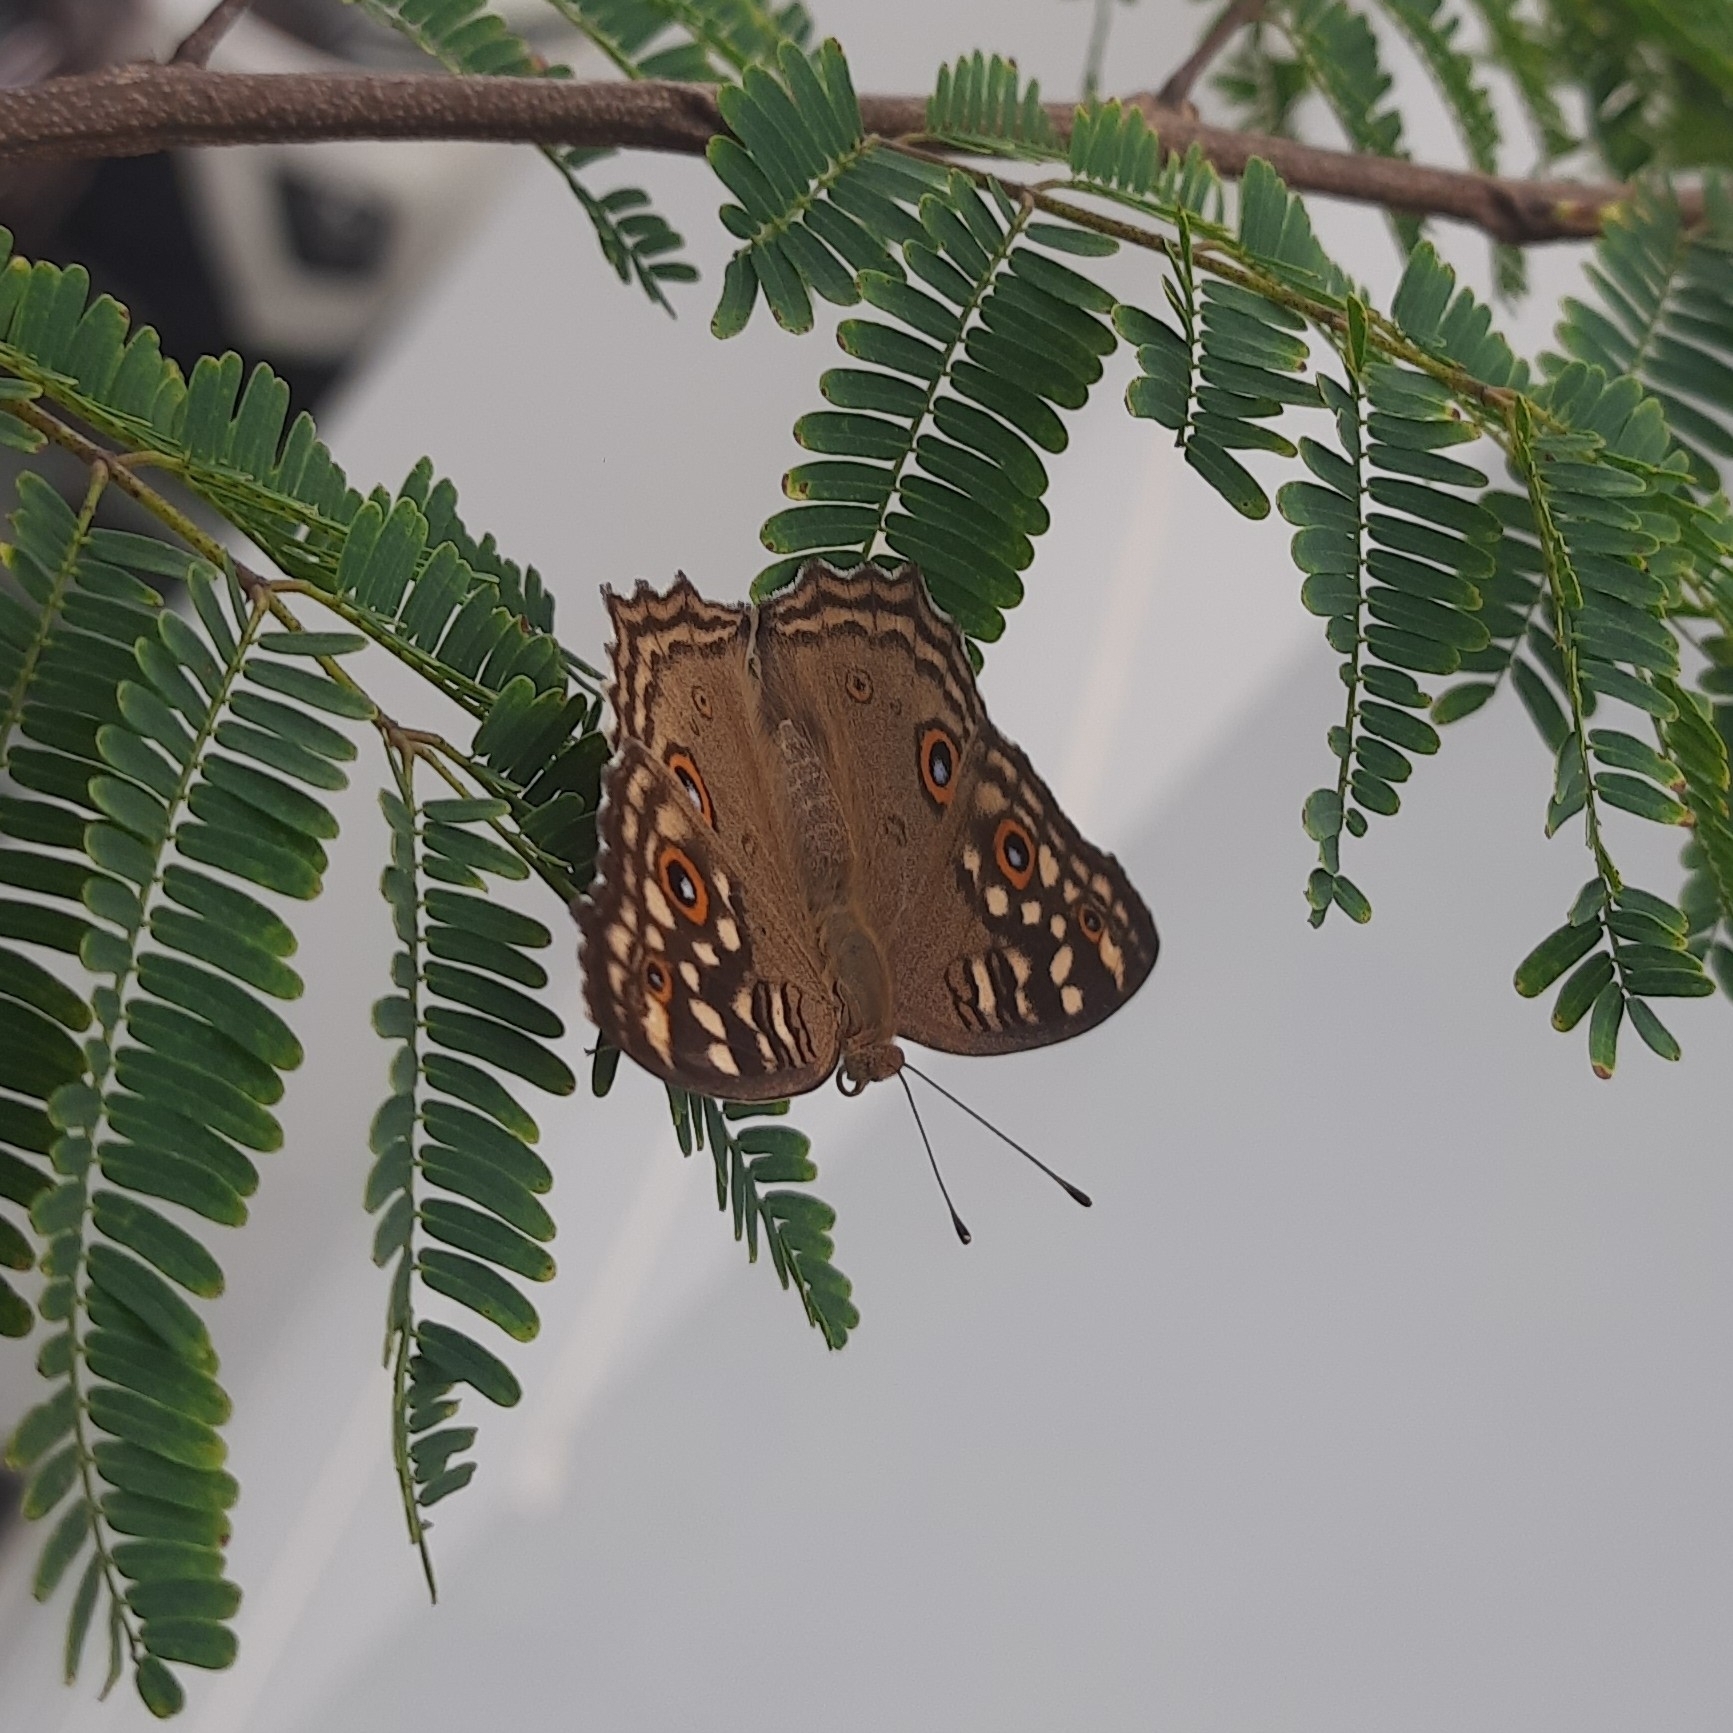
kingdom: Animalia
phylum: Arthropoda
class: Insecta
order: Lepidoptera
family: Nymphalidae
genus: Junonia
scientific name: Junonia lemonias
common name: Lemon pansy
